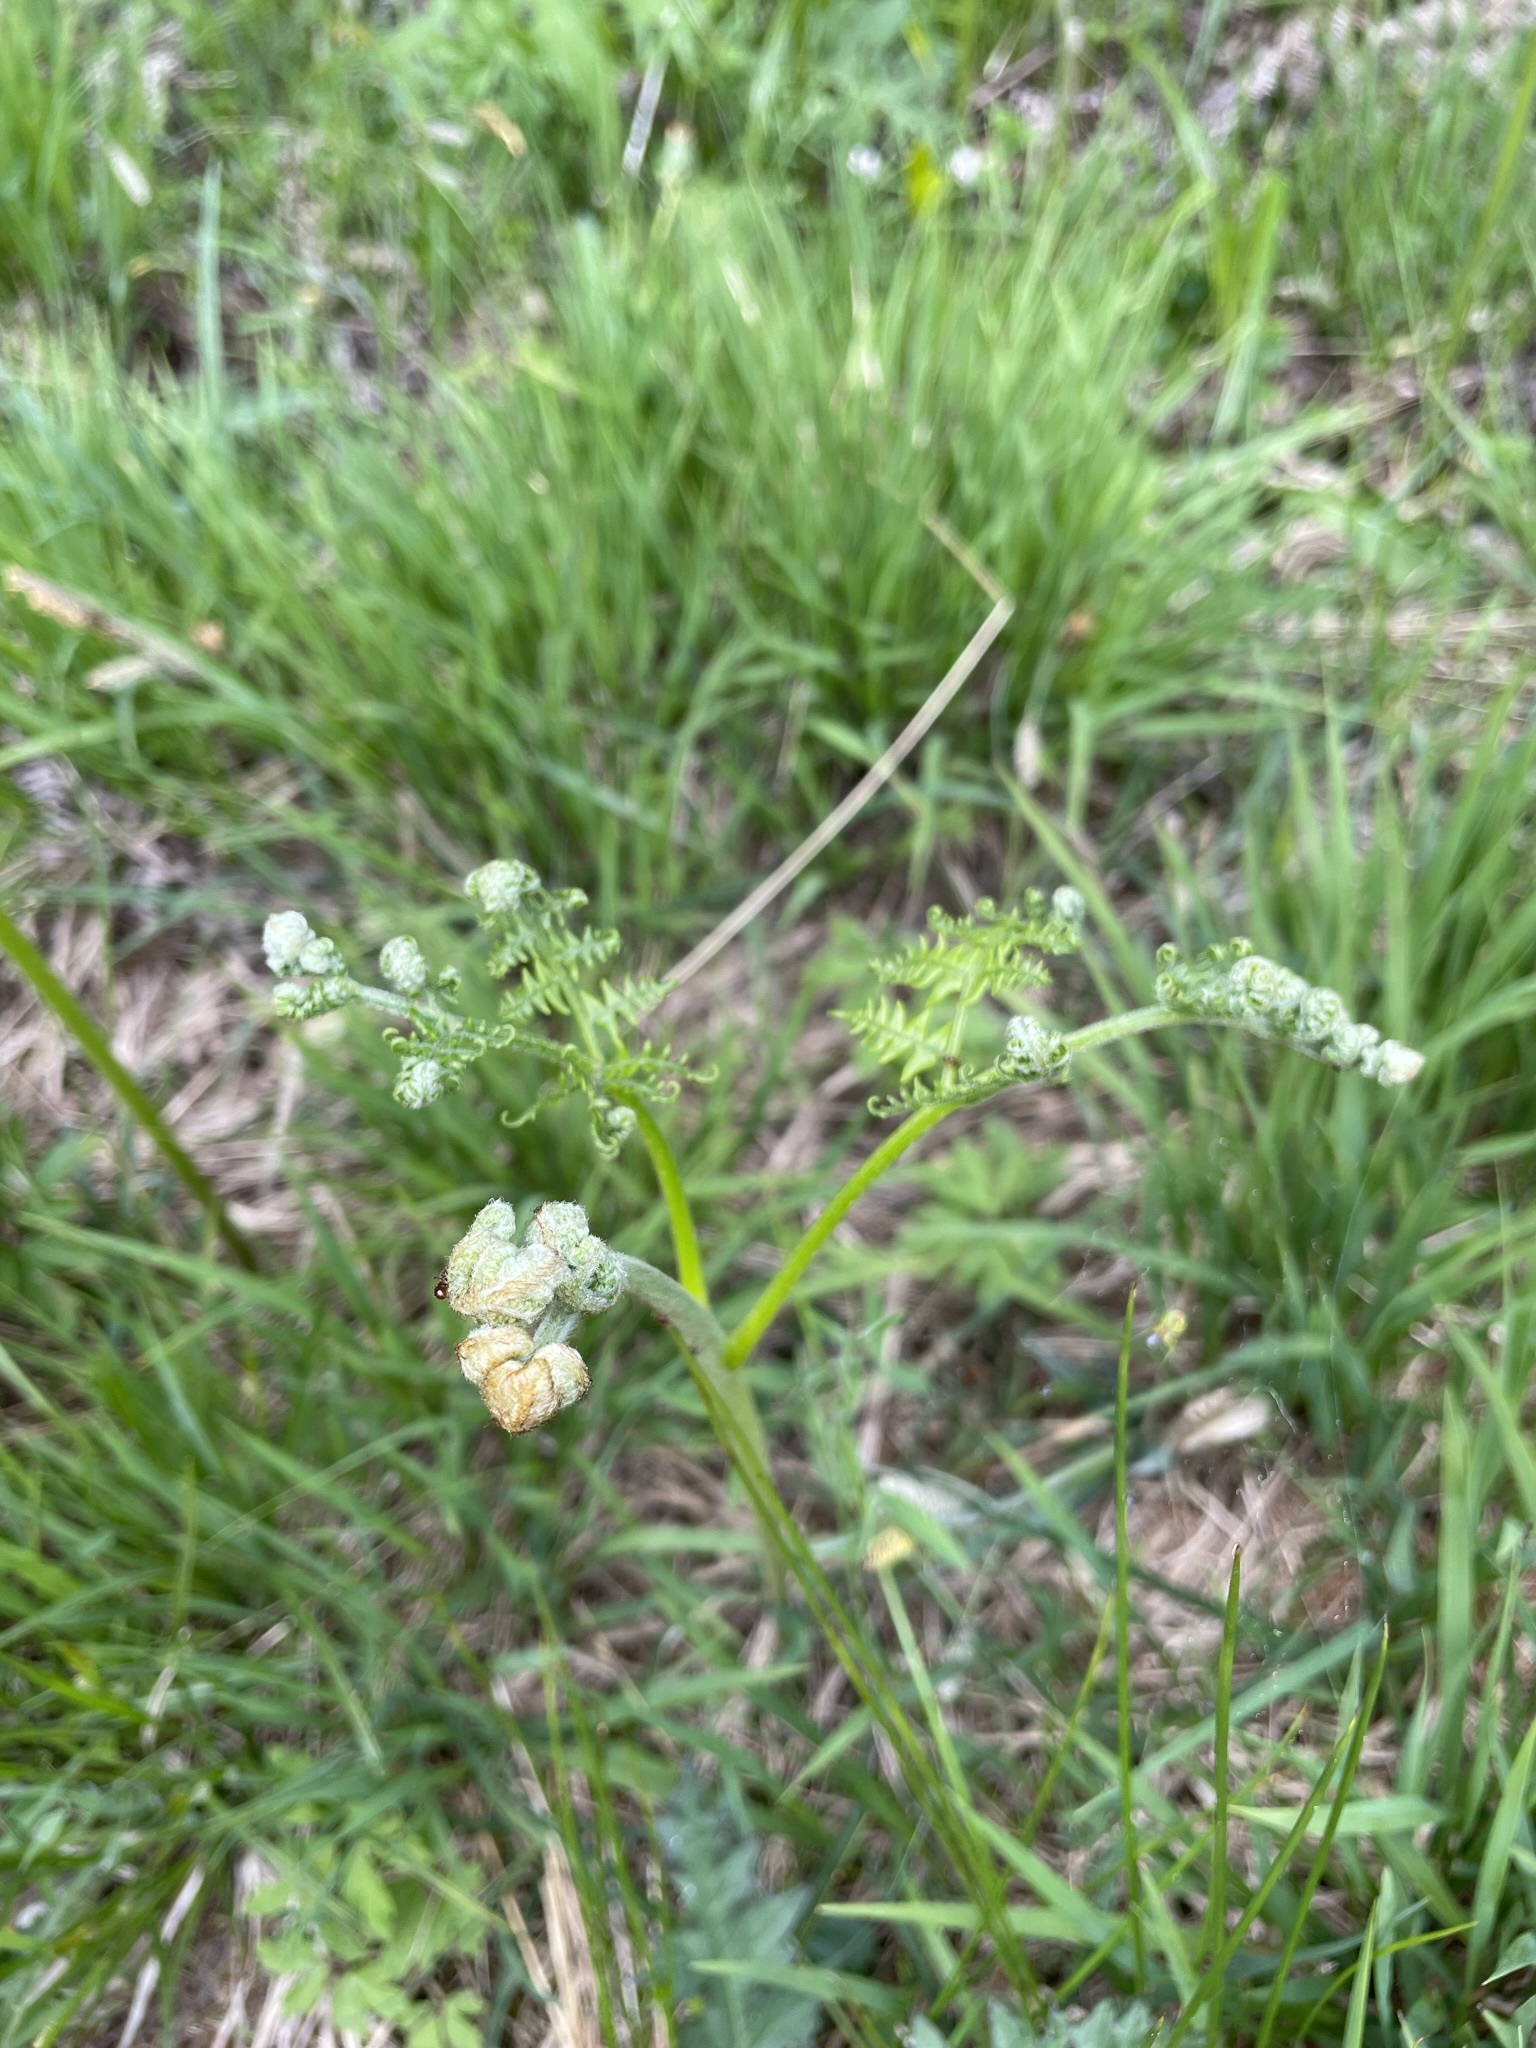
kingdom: Plantae
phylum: Tracheophyta
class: Polypodiopsida
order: Polypodiales
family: Dennstaedtiaceae
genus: Pteridium
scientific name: Pteridium aquilinum
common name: Bracken
